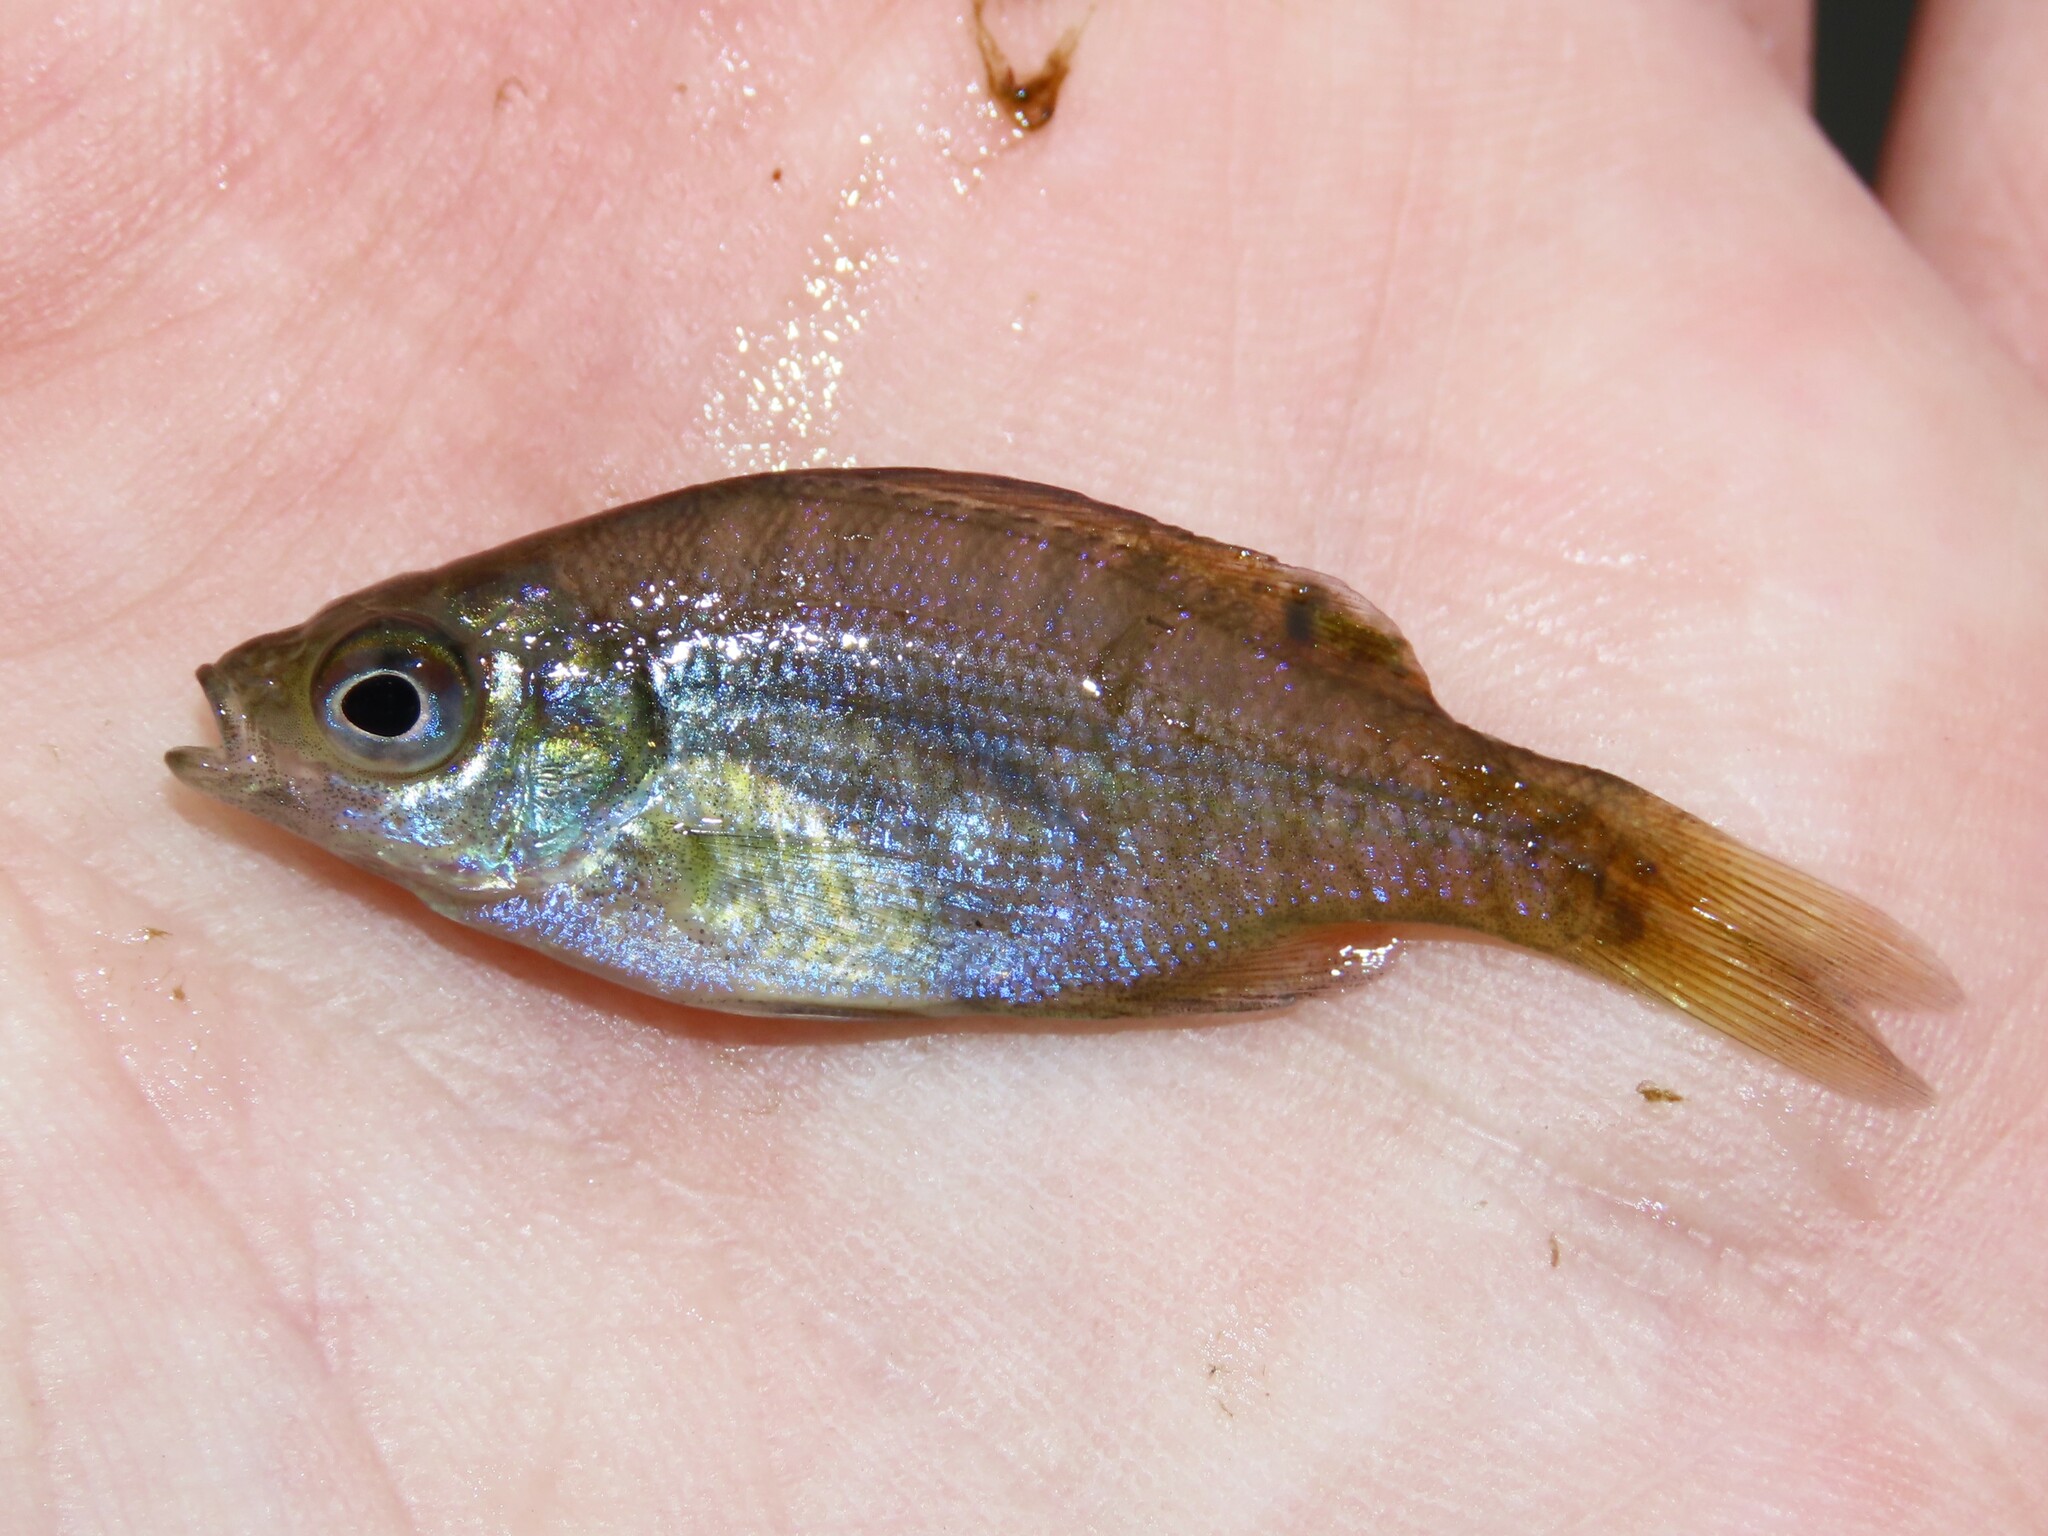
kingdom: Animalia
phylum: Chordata
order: Perciformes
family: Centrarchidae
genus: Lepomis
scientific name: Lepomis macrochirus
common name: Bluegill
